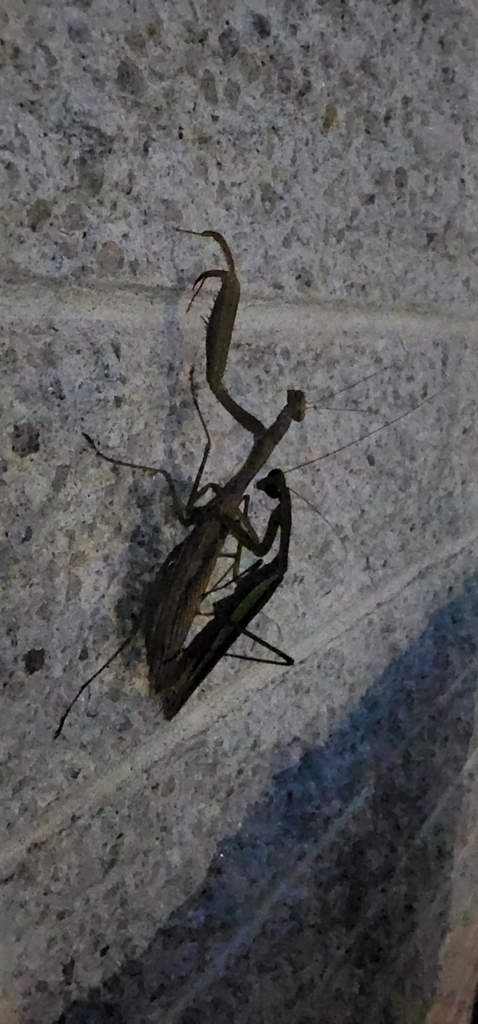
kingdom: Animalia
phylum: Arthropoda
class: Insecta
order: Mantodea
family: Mantidae
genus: Tenodera
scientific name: Tenodera sinensis
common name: Chinese mantis
